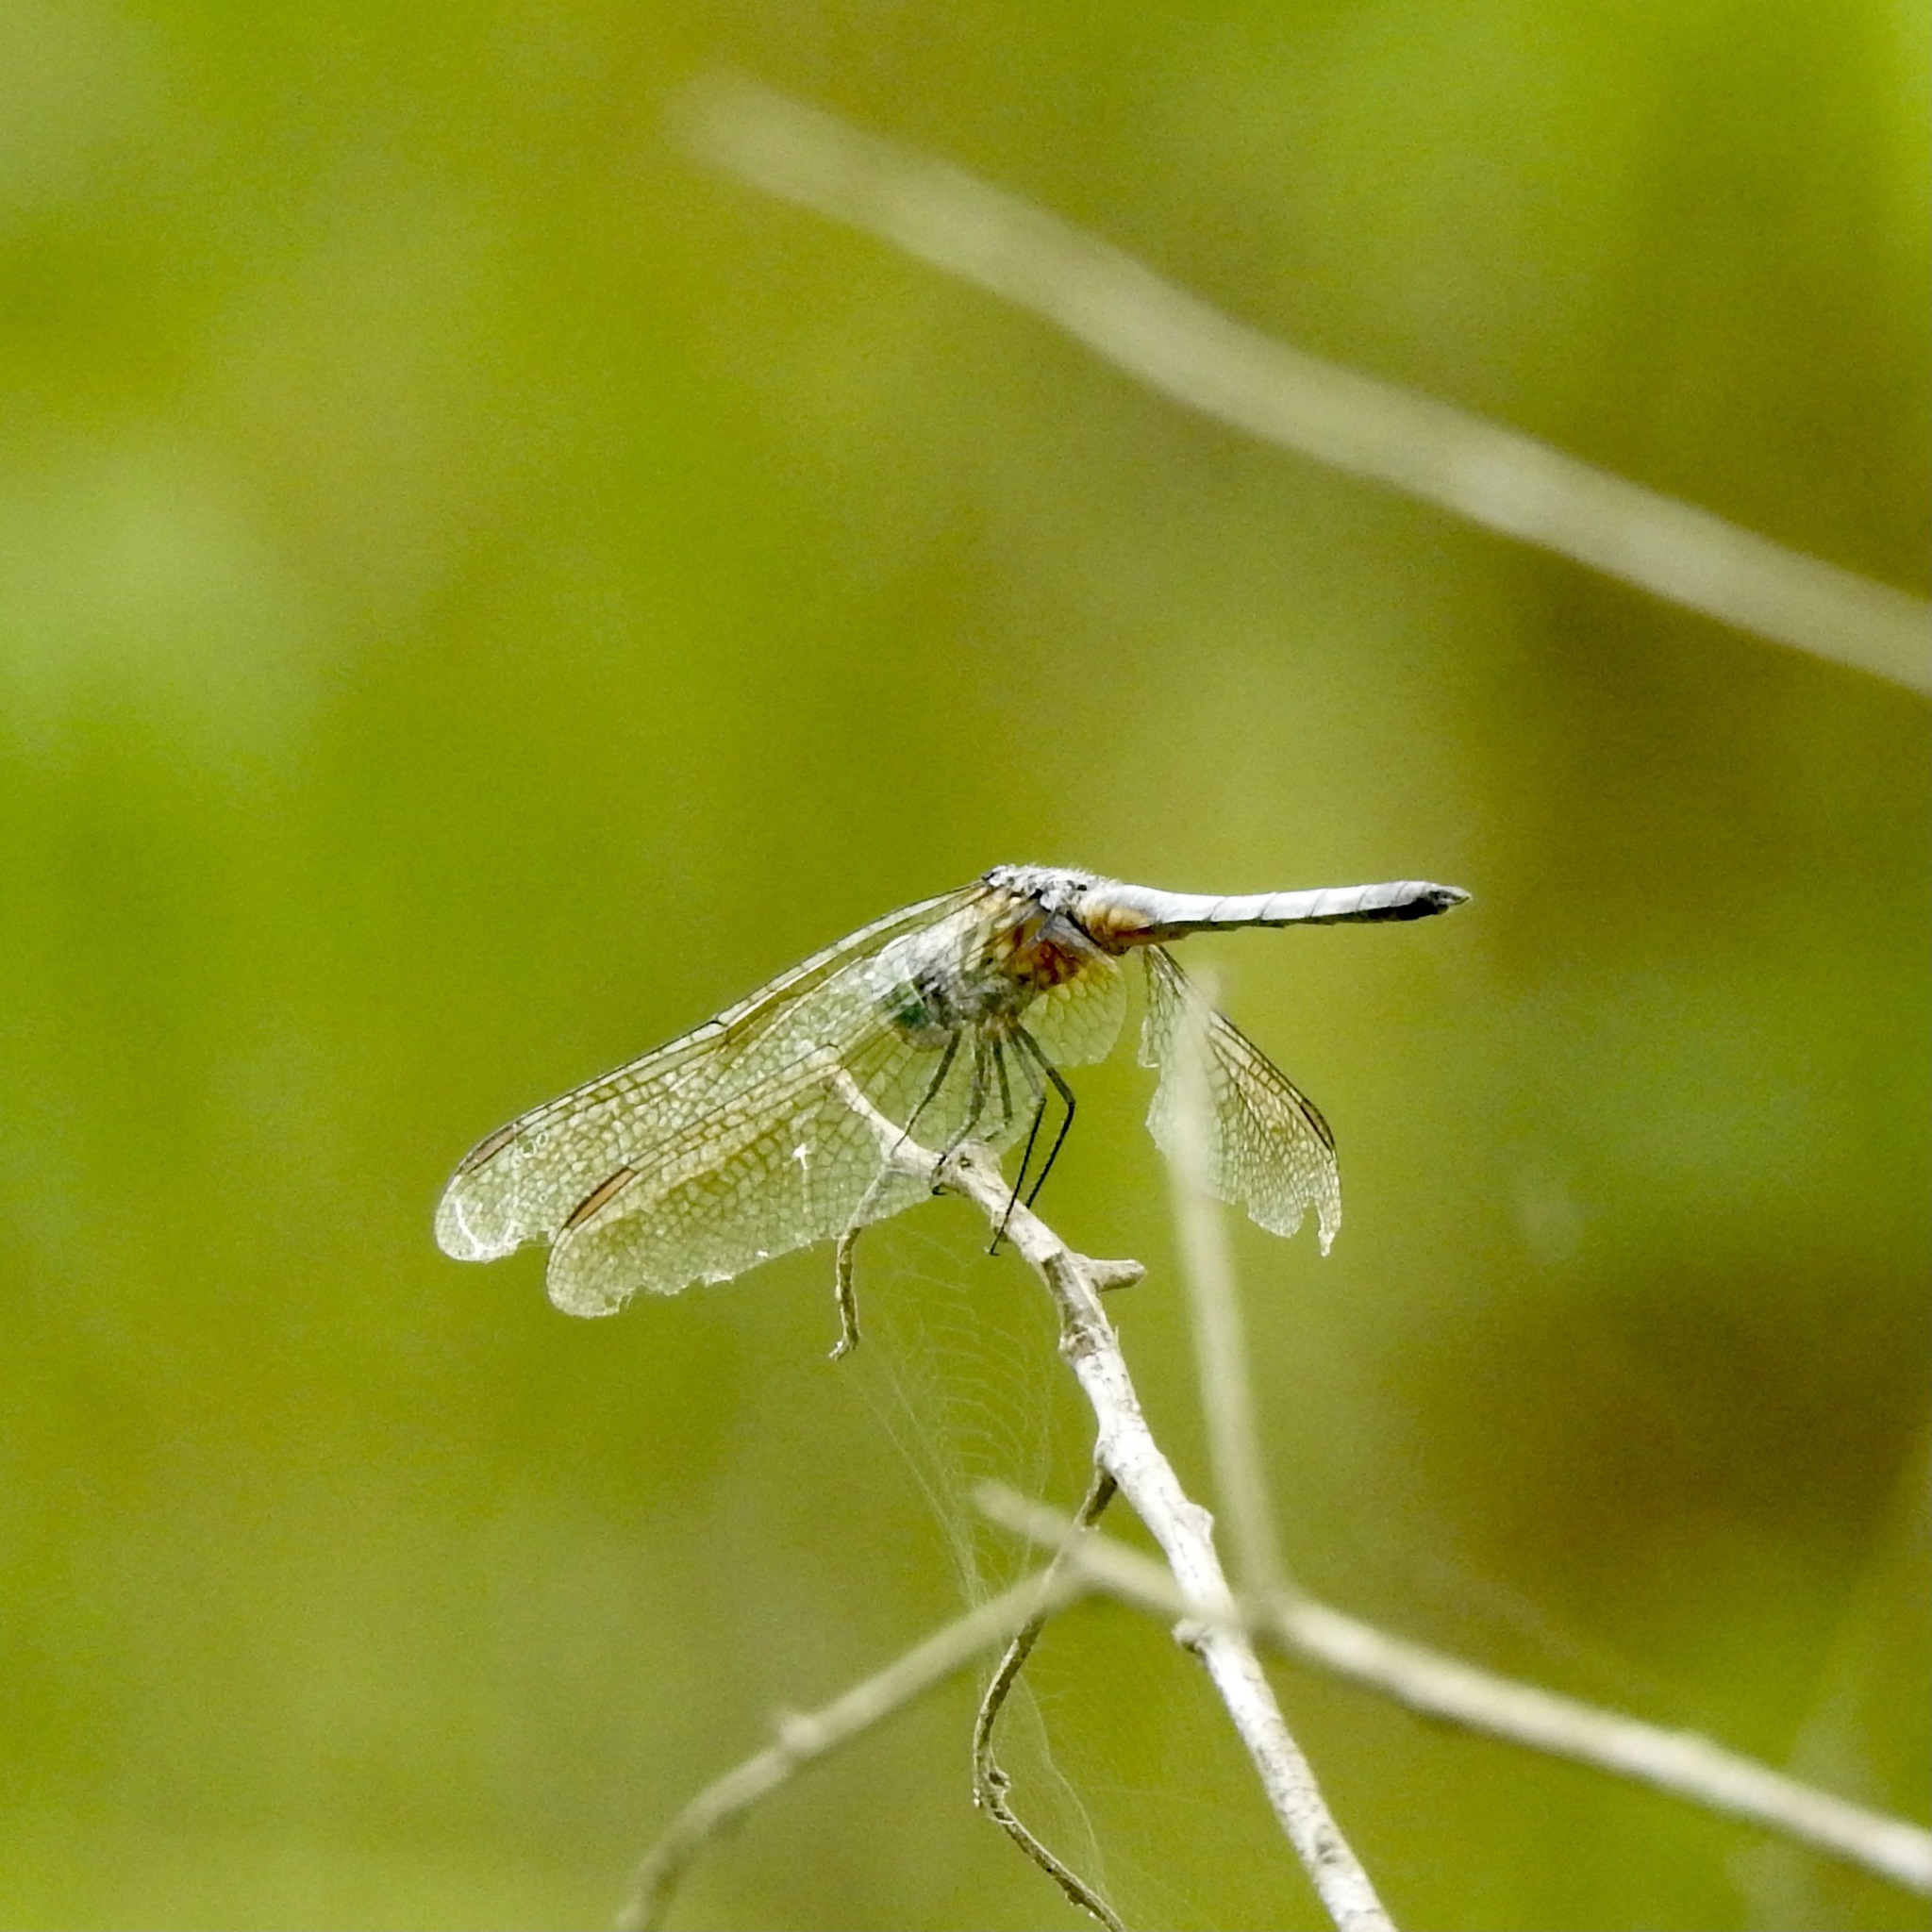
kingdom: Animalia
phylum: Arthropoda
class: Insecta
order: Odonata
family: Libellulidae
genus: Pachydiplax
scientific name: Pachydiplax longipennis
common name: Blue dasher
